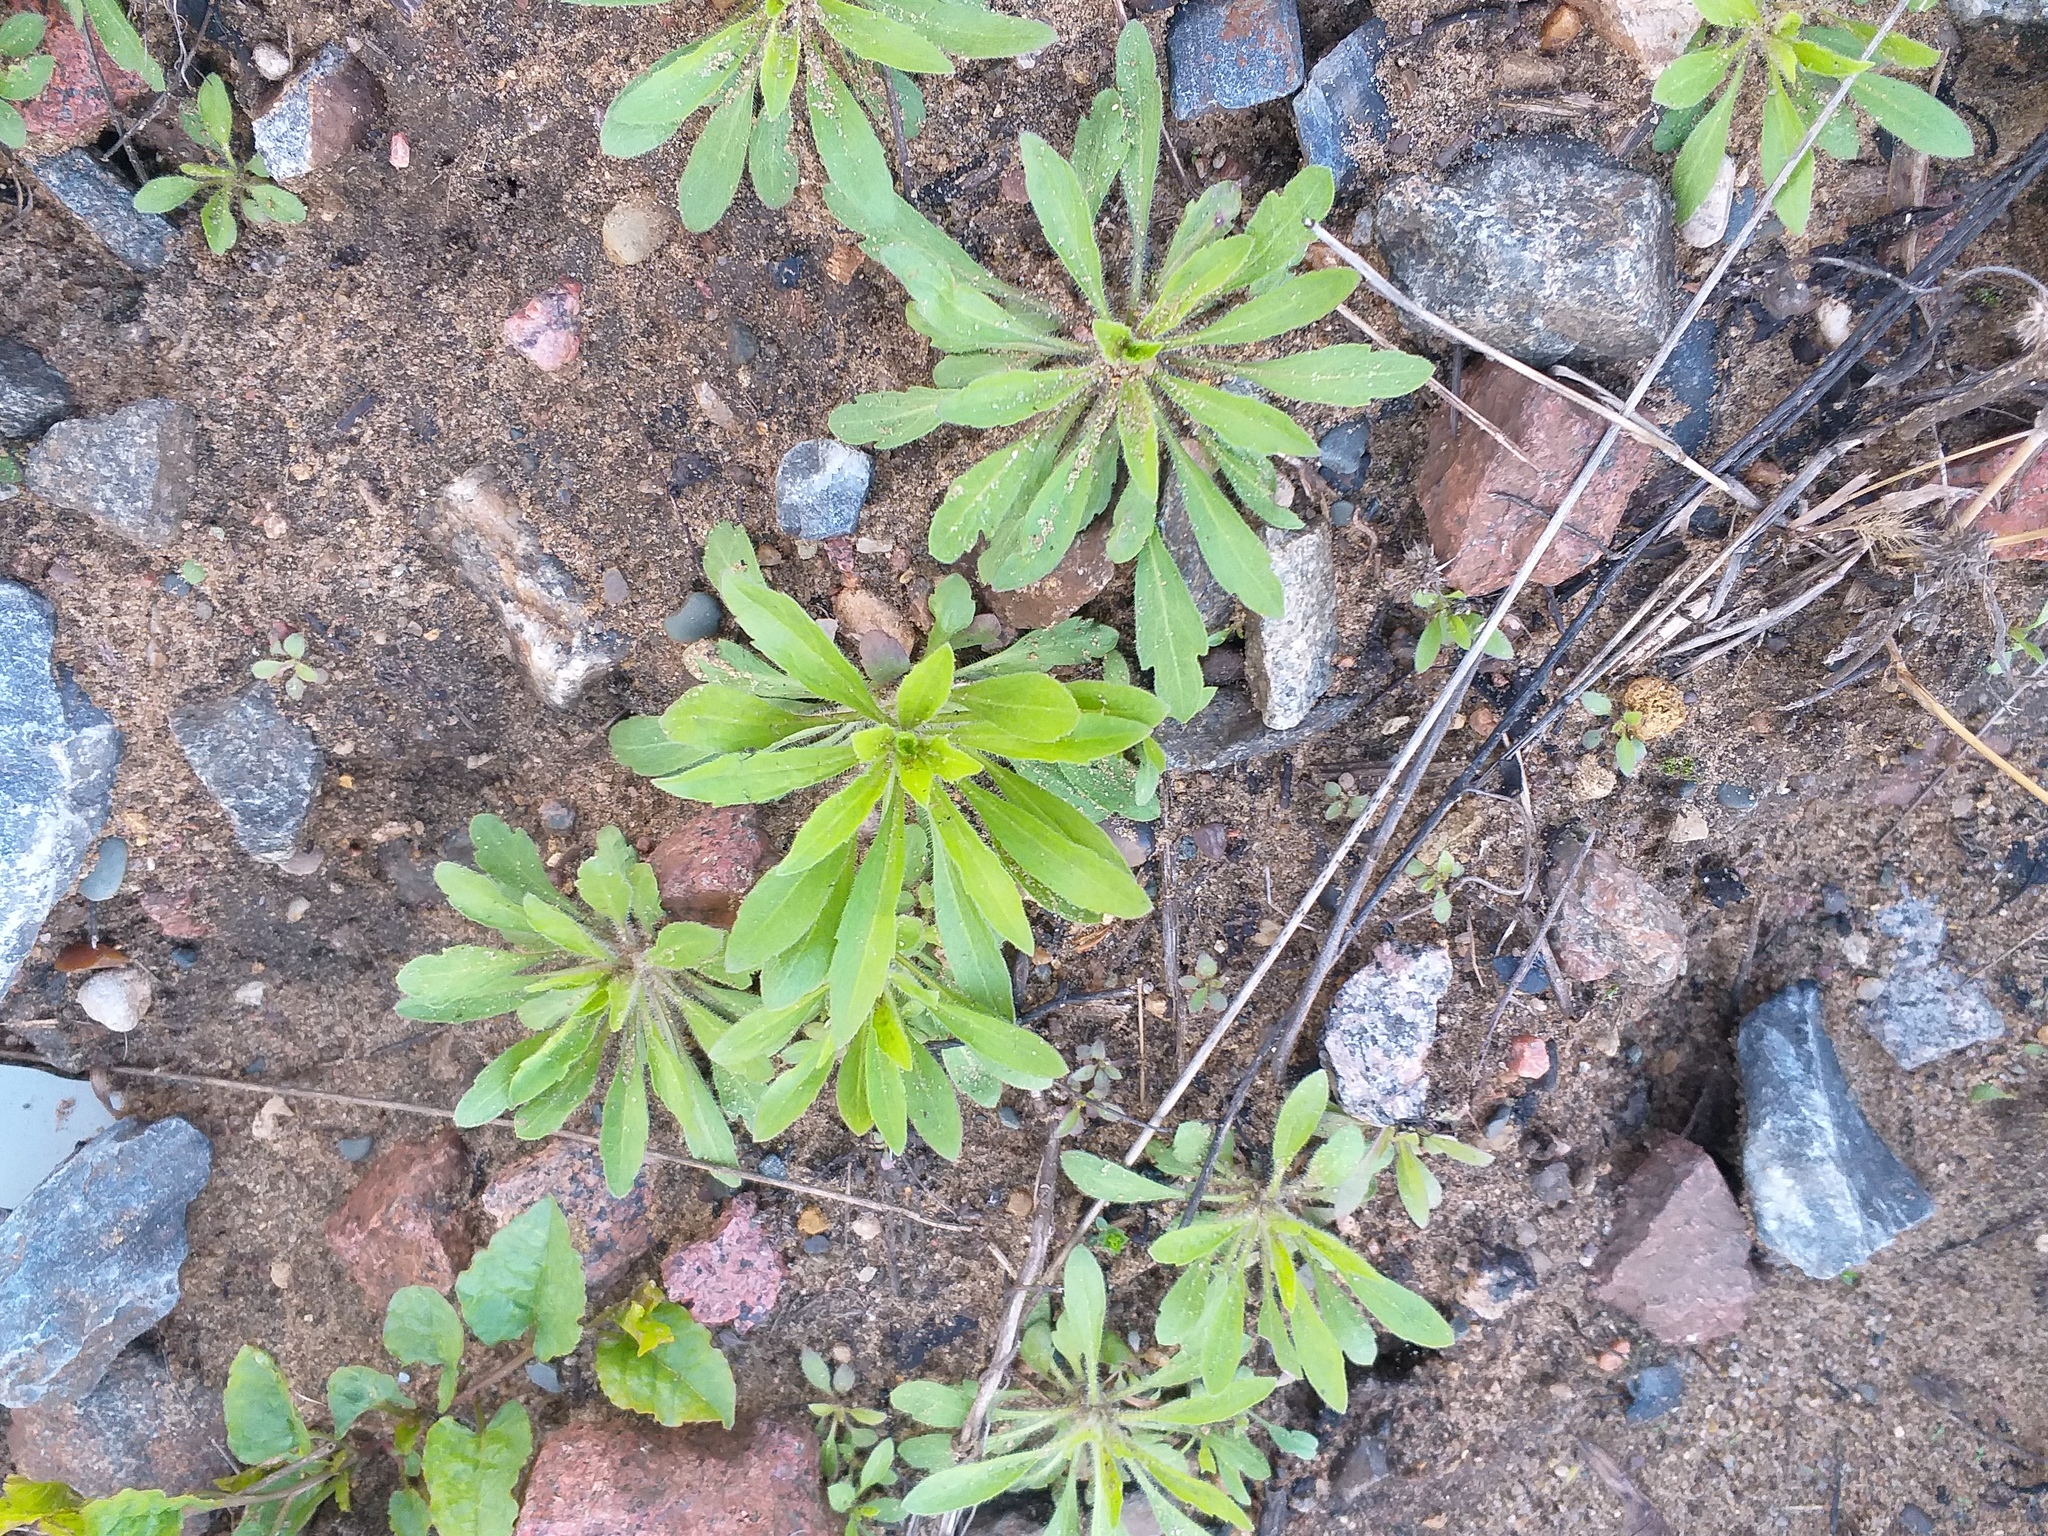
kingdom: Plantae
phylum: Tracheophyta
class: Magnoliopsida
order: Asterales
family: Asteraceae
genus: Erigeron
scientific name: Erigeron canadensis
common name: Canadian fleabane
